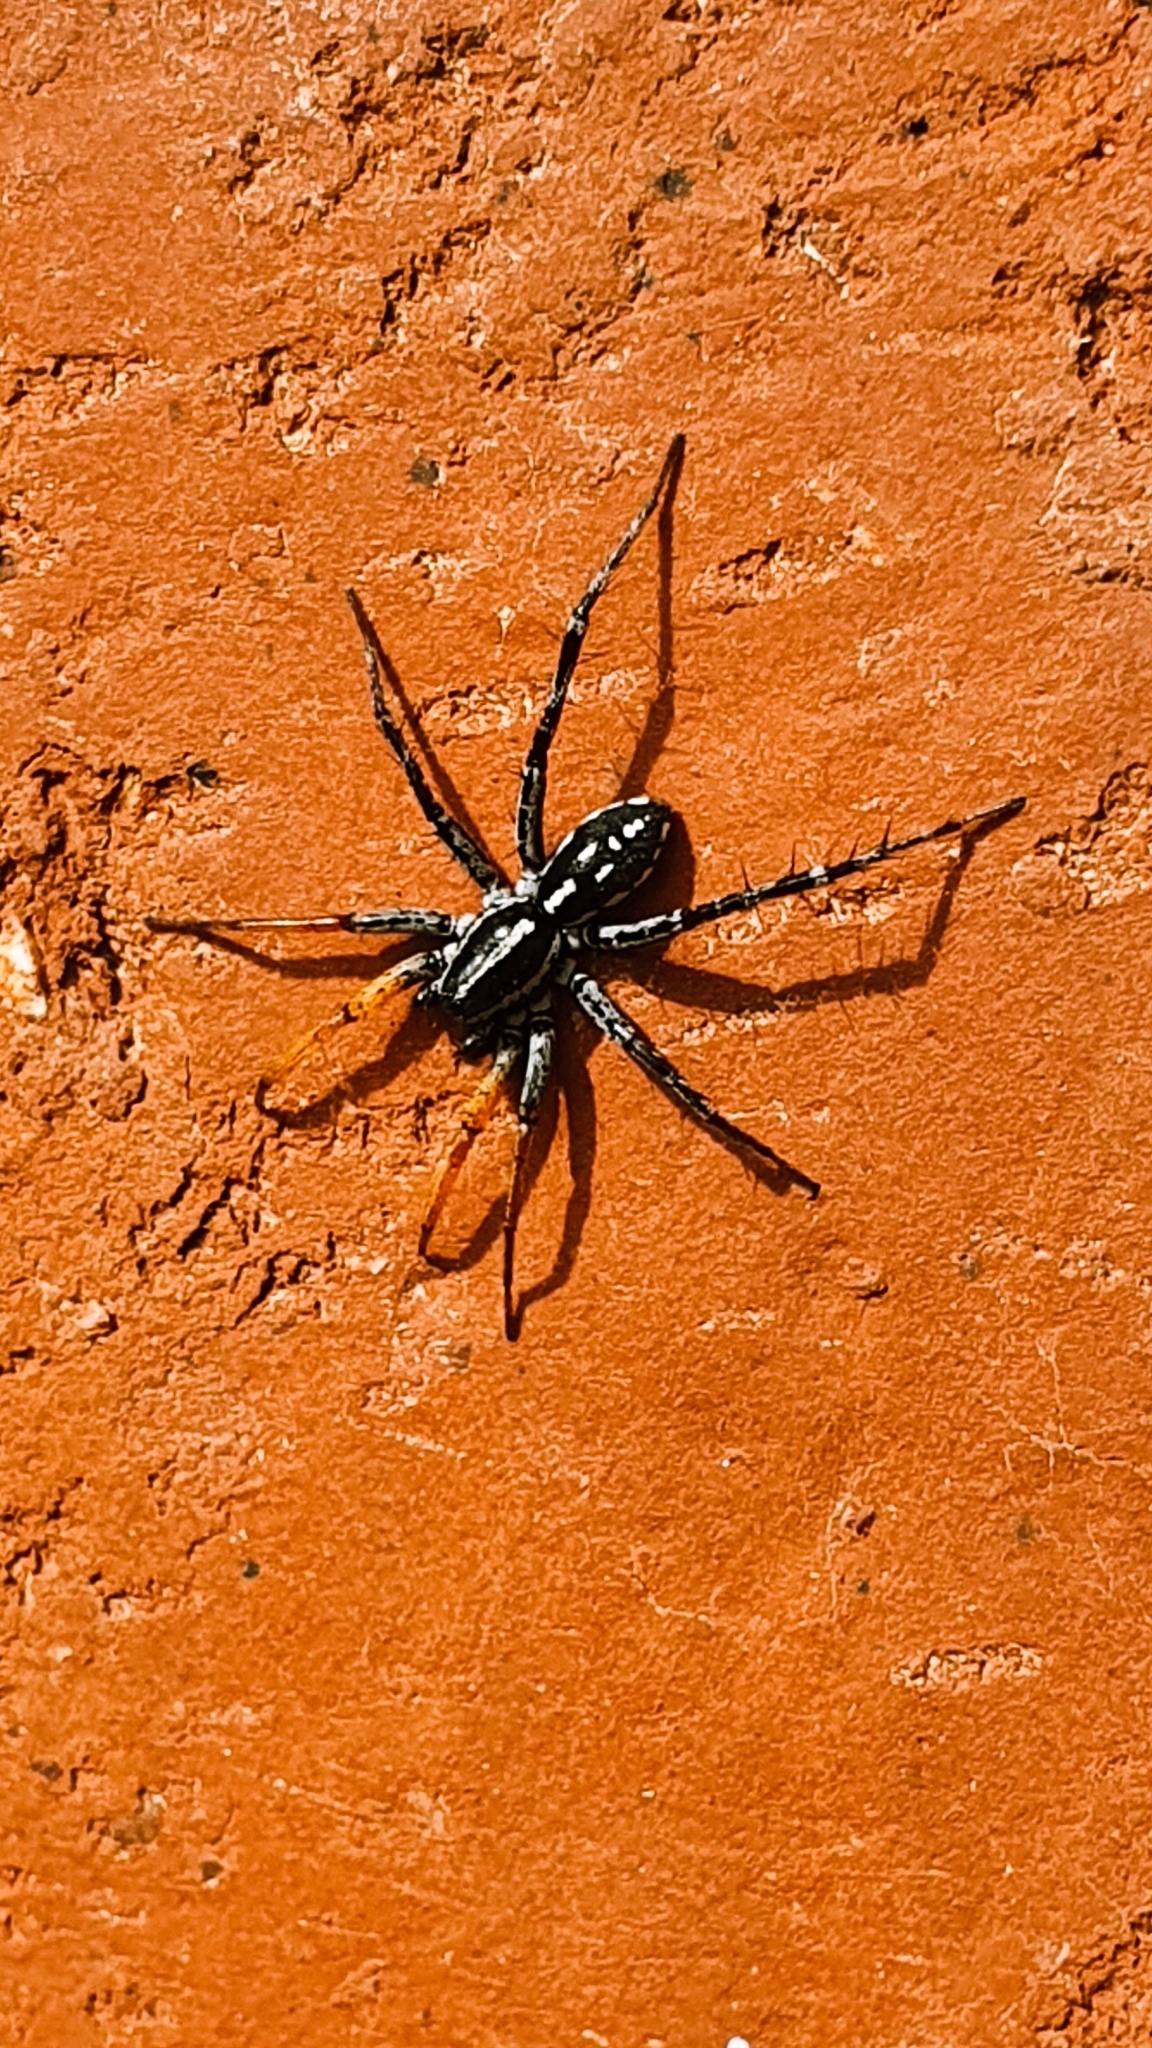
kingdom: Animalia
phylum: Arthropoda
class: Arachnida
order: Araneae
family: Corinnidae
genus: Nyssus
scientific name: Nyssus coloripes
